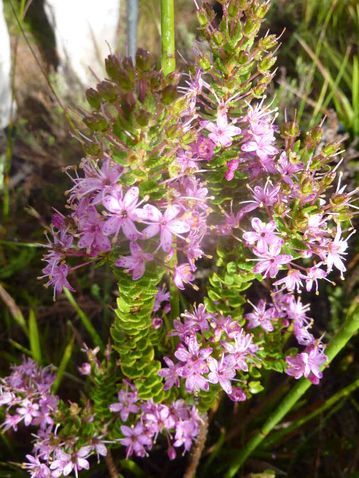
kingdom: Plantae
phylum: Tracheophyta
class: Magnoliopsida
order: Sapindales
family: Rutaceae
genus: Agathosma
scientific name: Agathosma odoratissima
